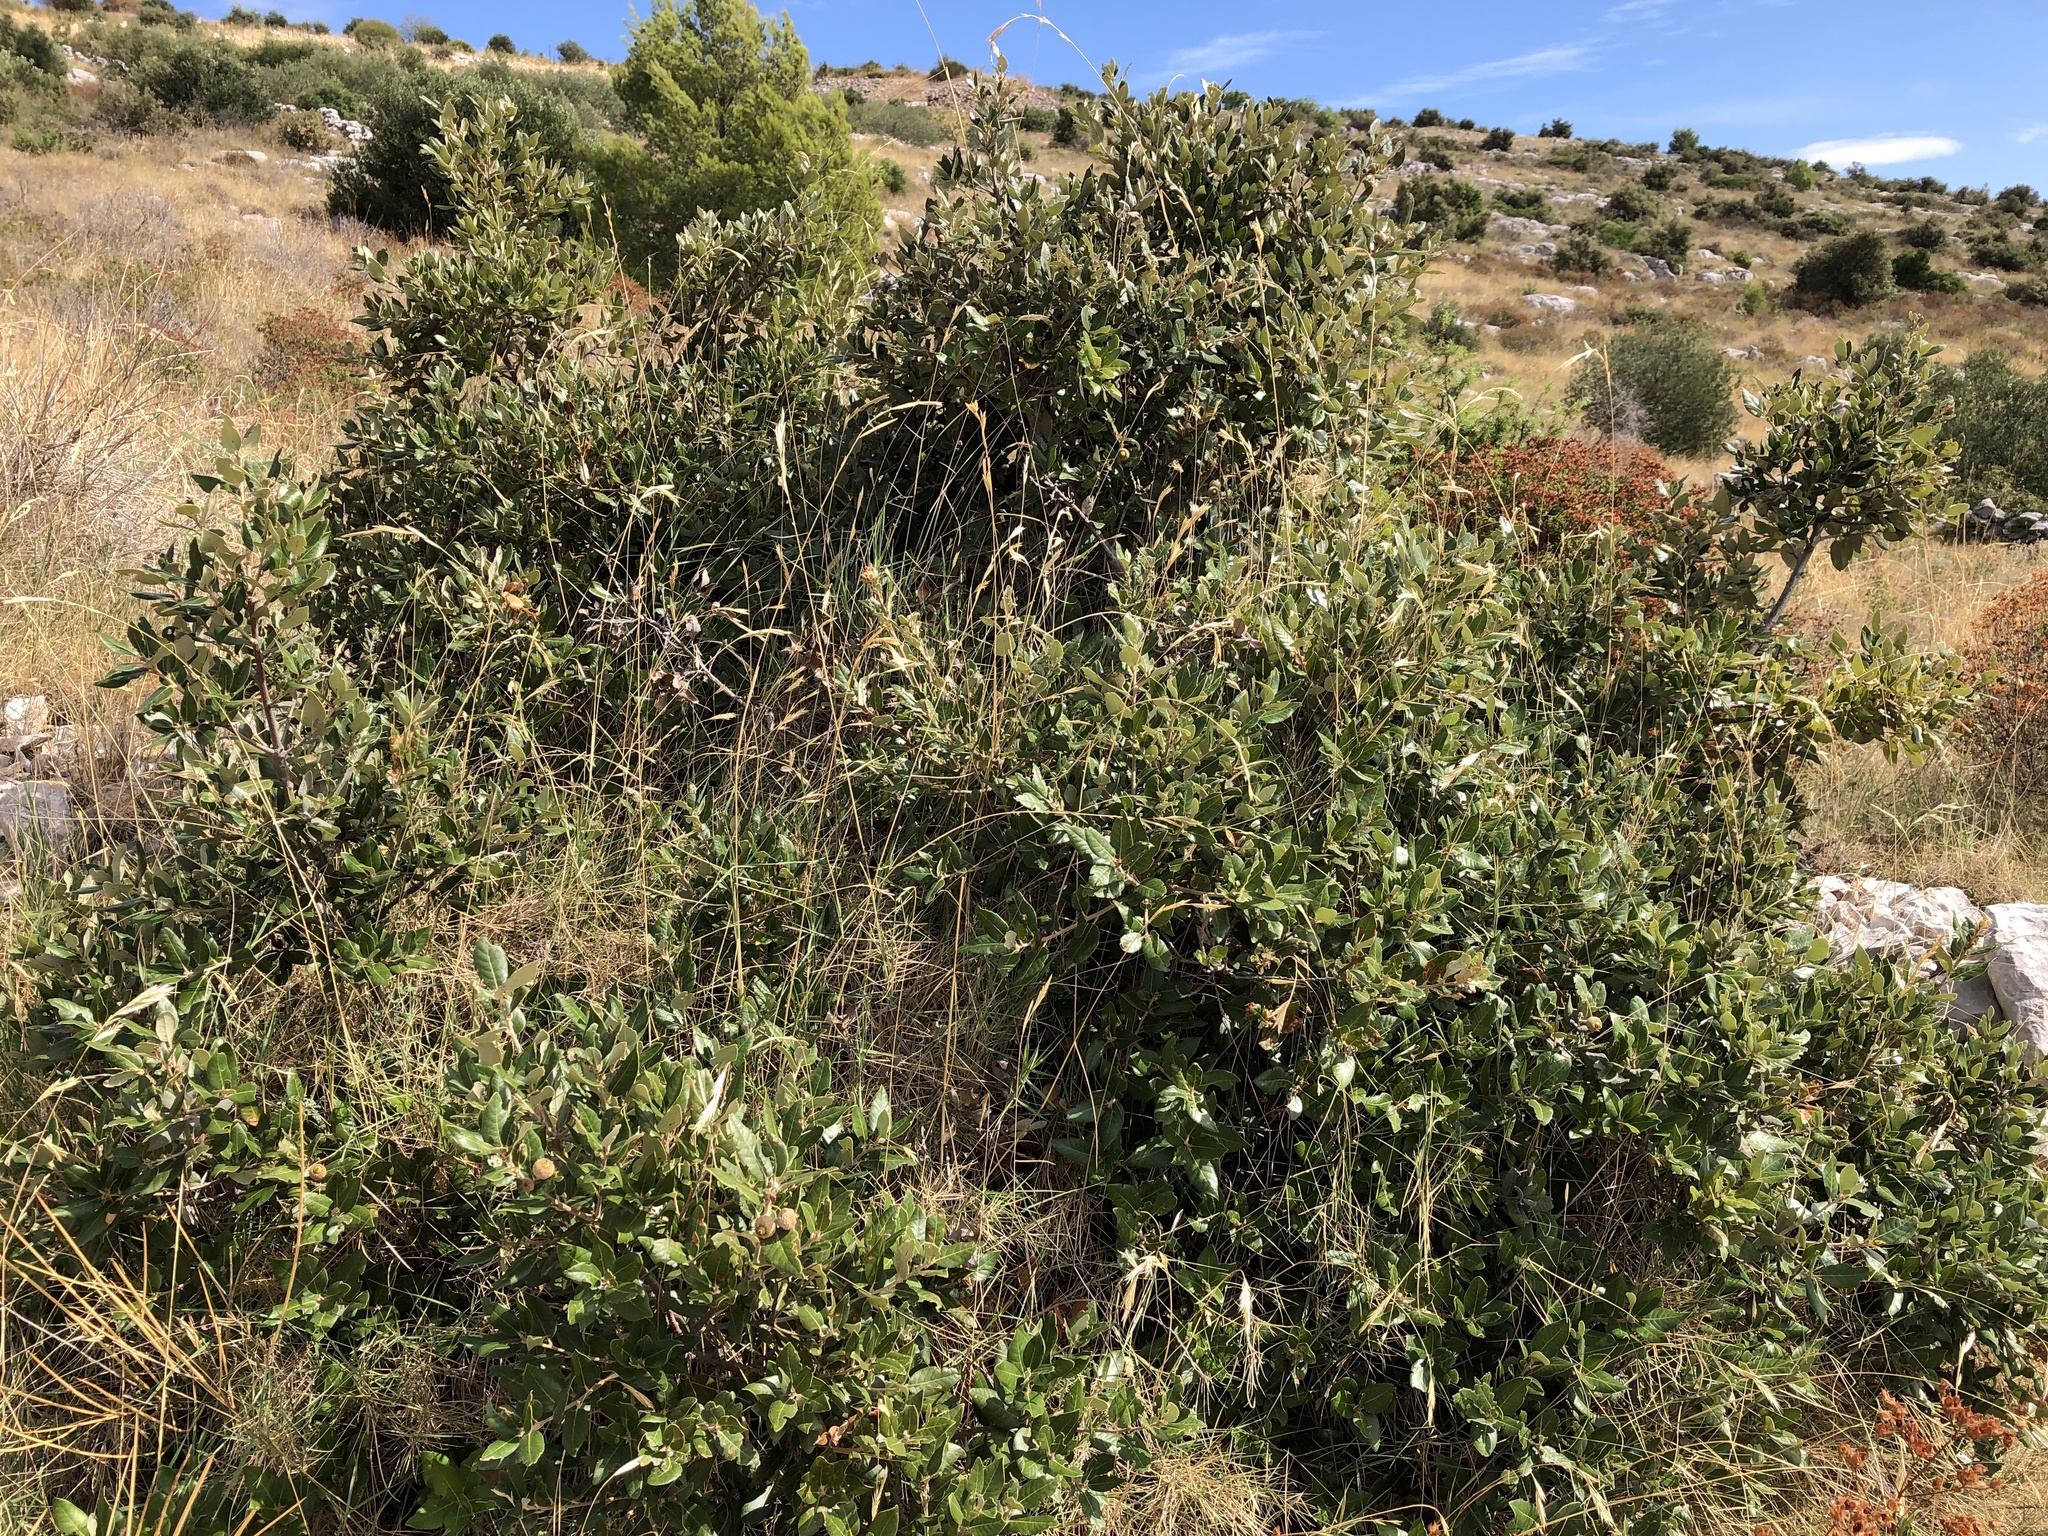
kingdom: Plantae
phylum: Tracheophyta
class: Magnoliopsida
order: Fagales
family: Fagaceae
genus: Quercus
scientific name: Quercus ilex
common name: Evergreen oak
